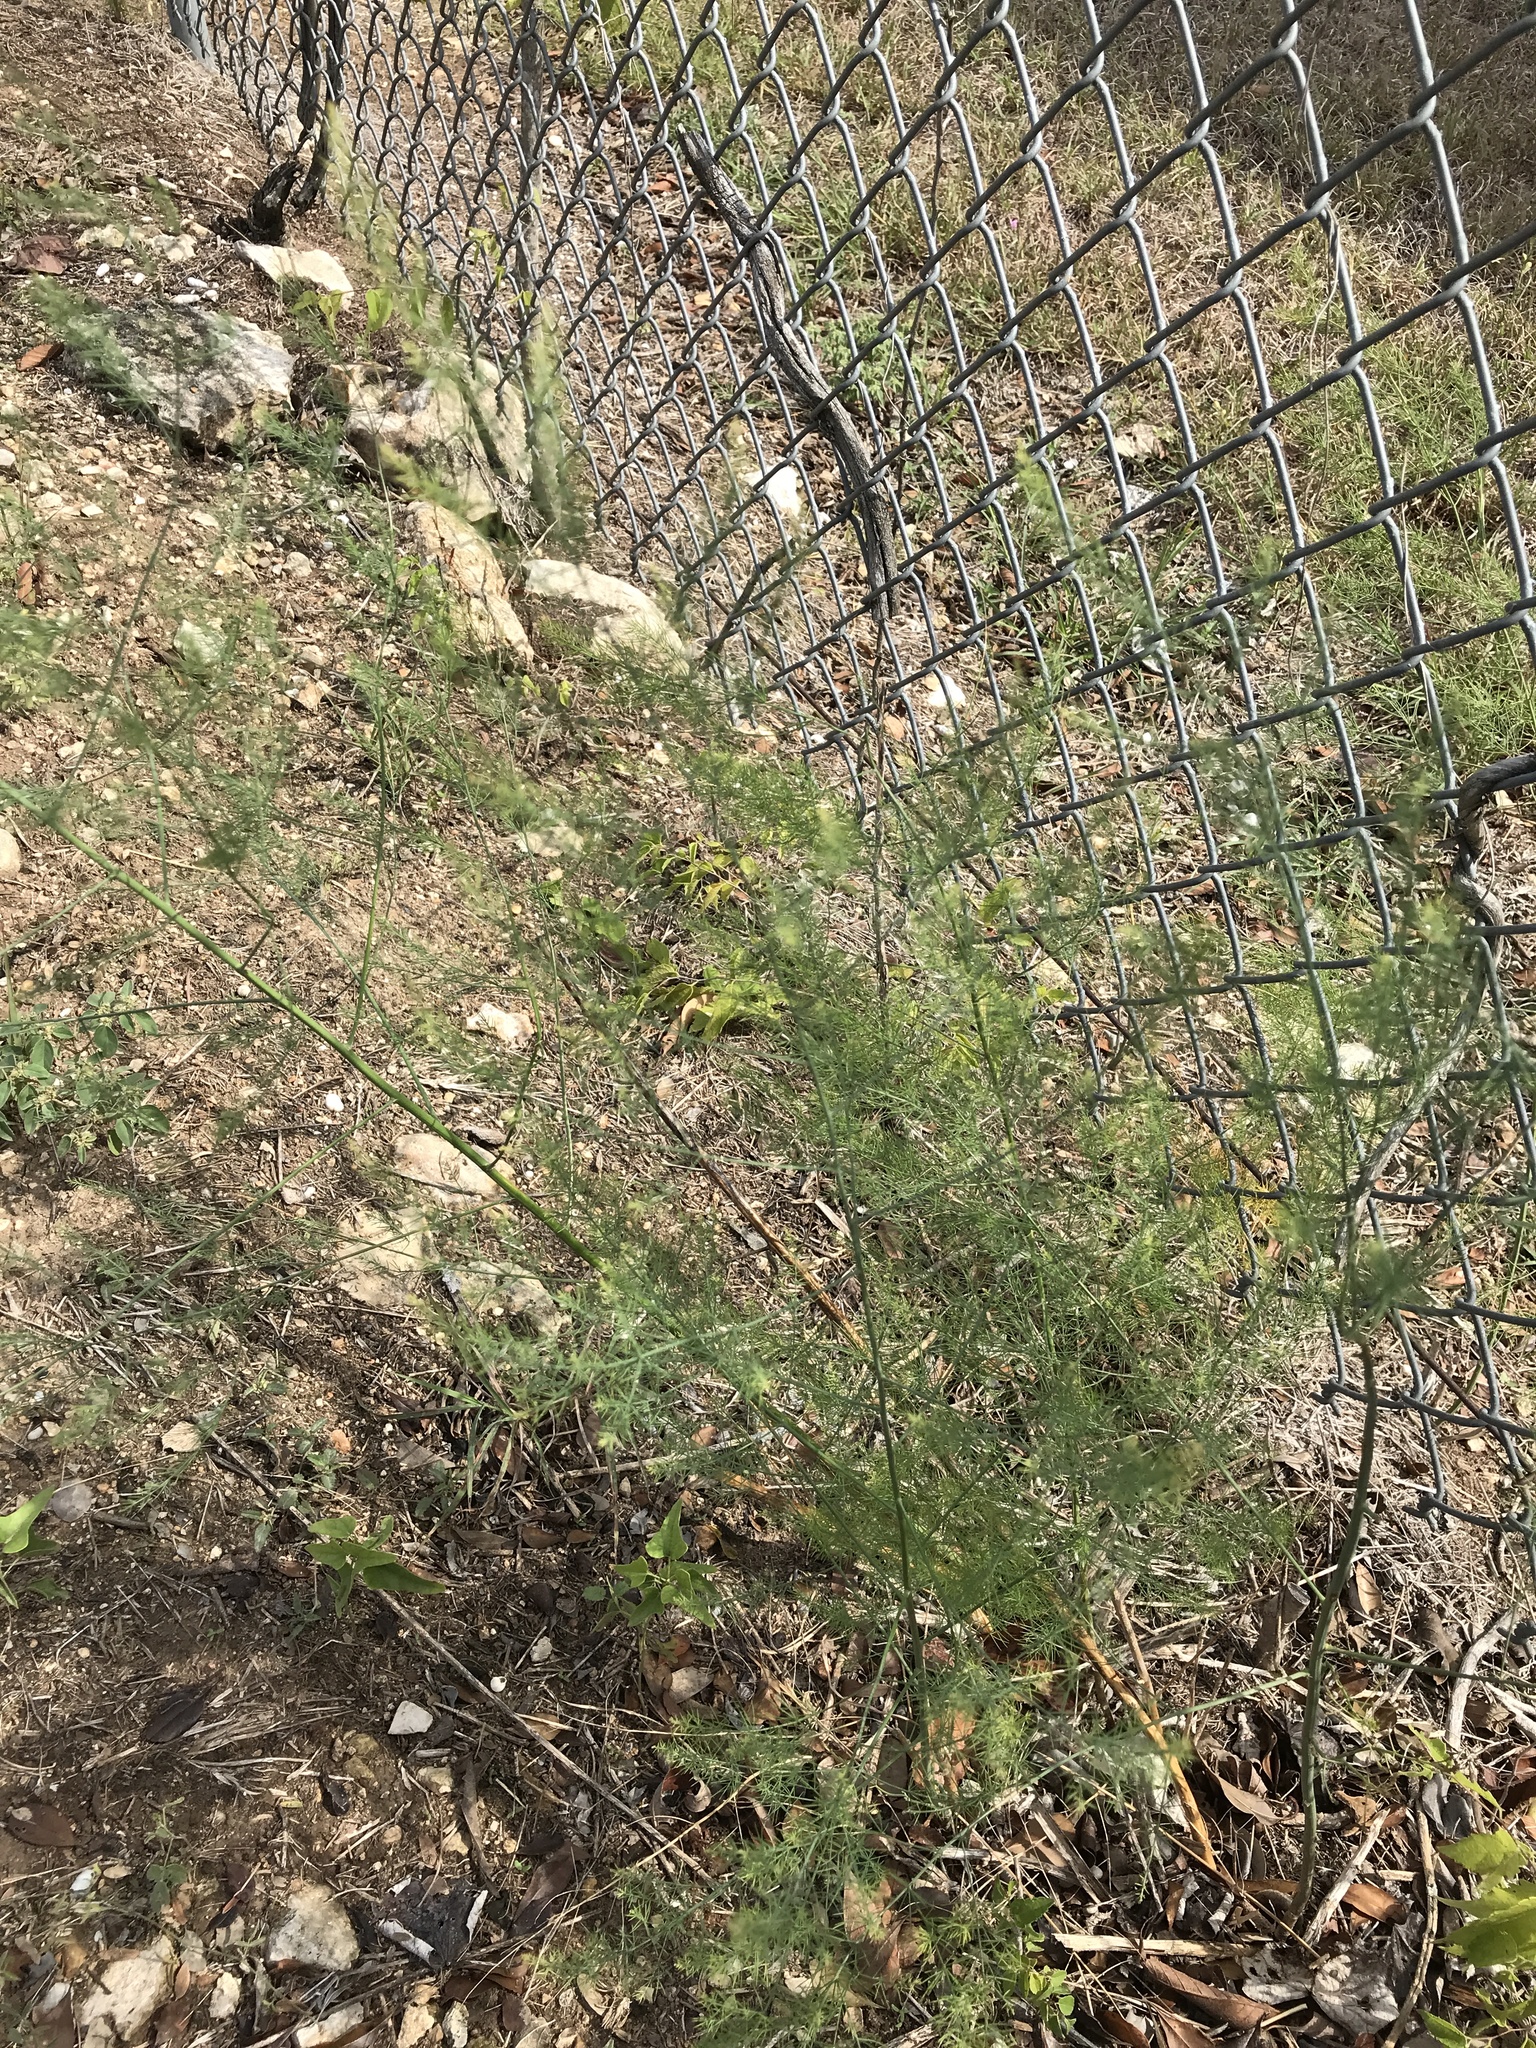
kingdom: Plantae
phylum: Tracheophyta
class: Liliopsida
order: Asparagales
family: Asparagaceae
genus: Asparagus
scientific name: Asparagus officinalis
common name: Garden asparagus
